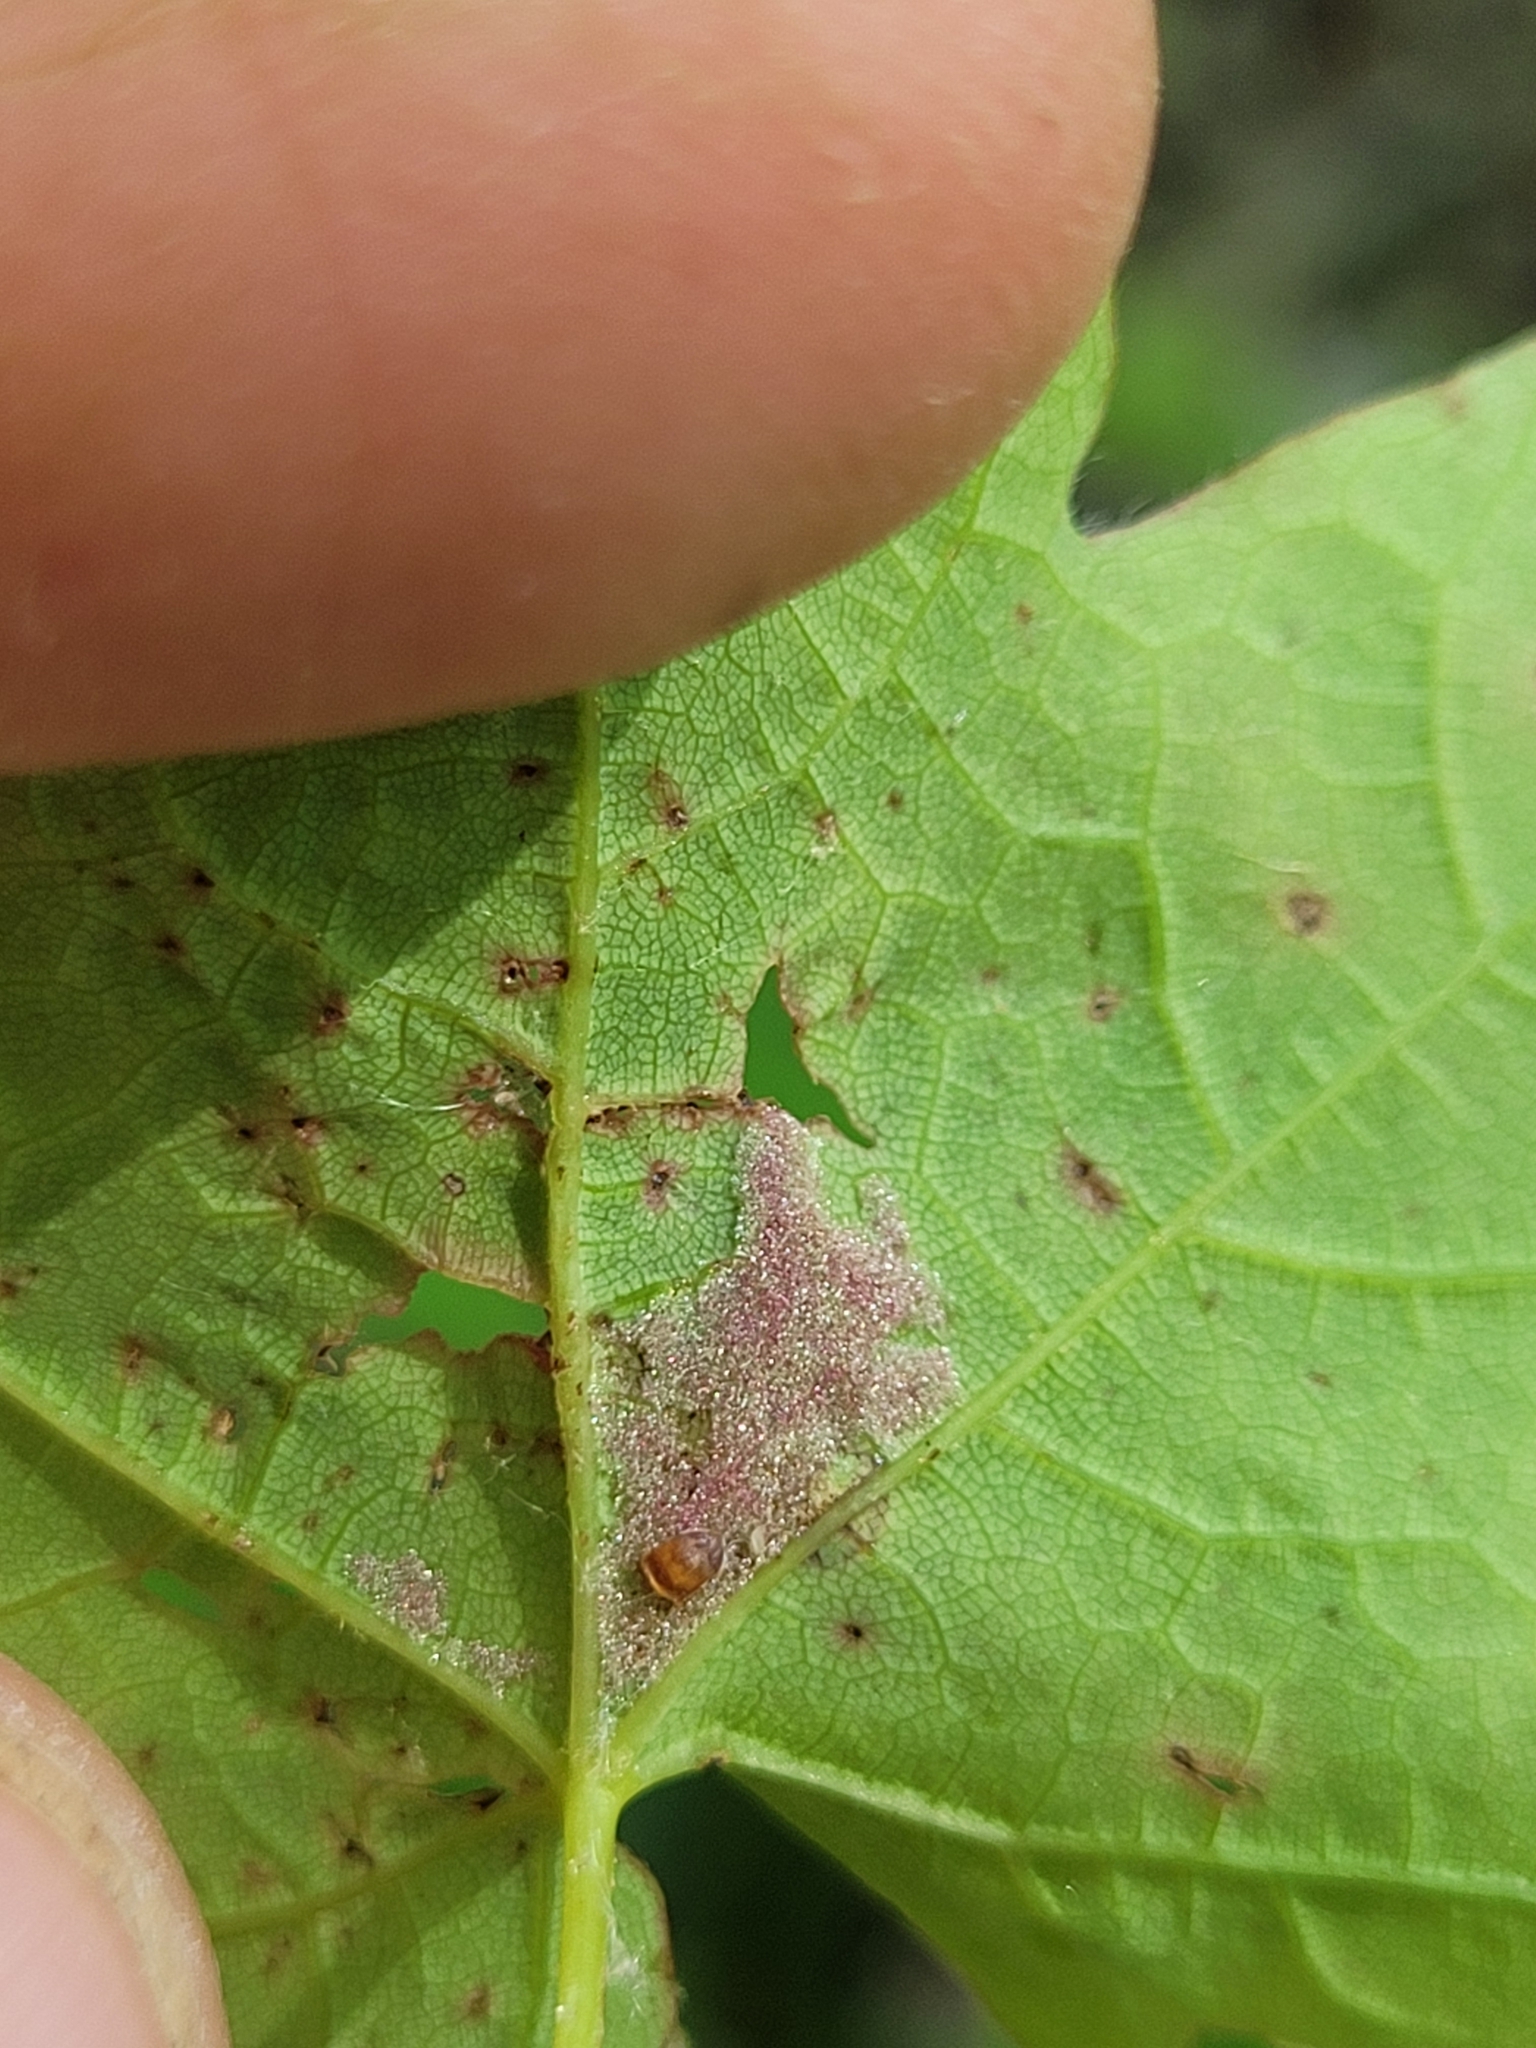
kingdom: Animalia
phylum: Arthropoda
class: Arachnida
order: Trombidiformes
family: Eriophyidae
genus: Aceria
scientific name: Aceria
